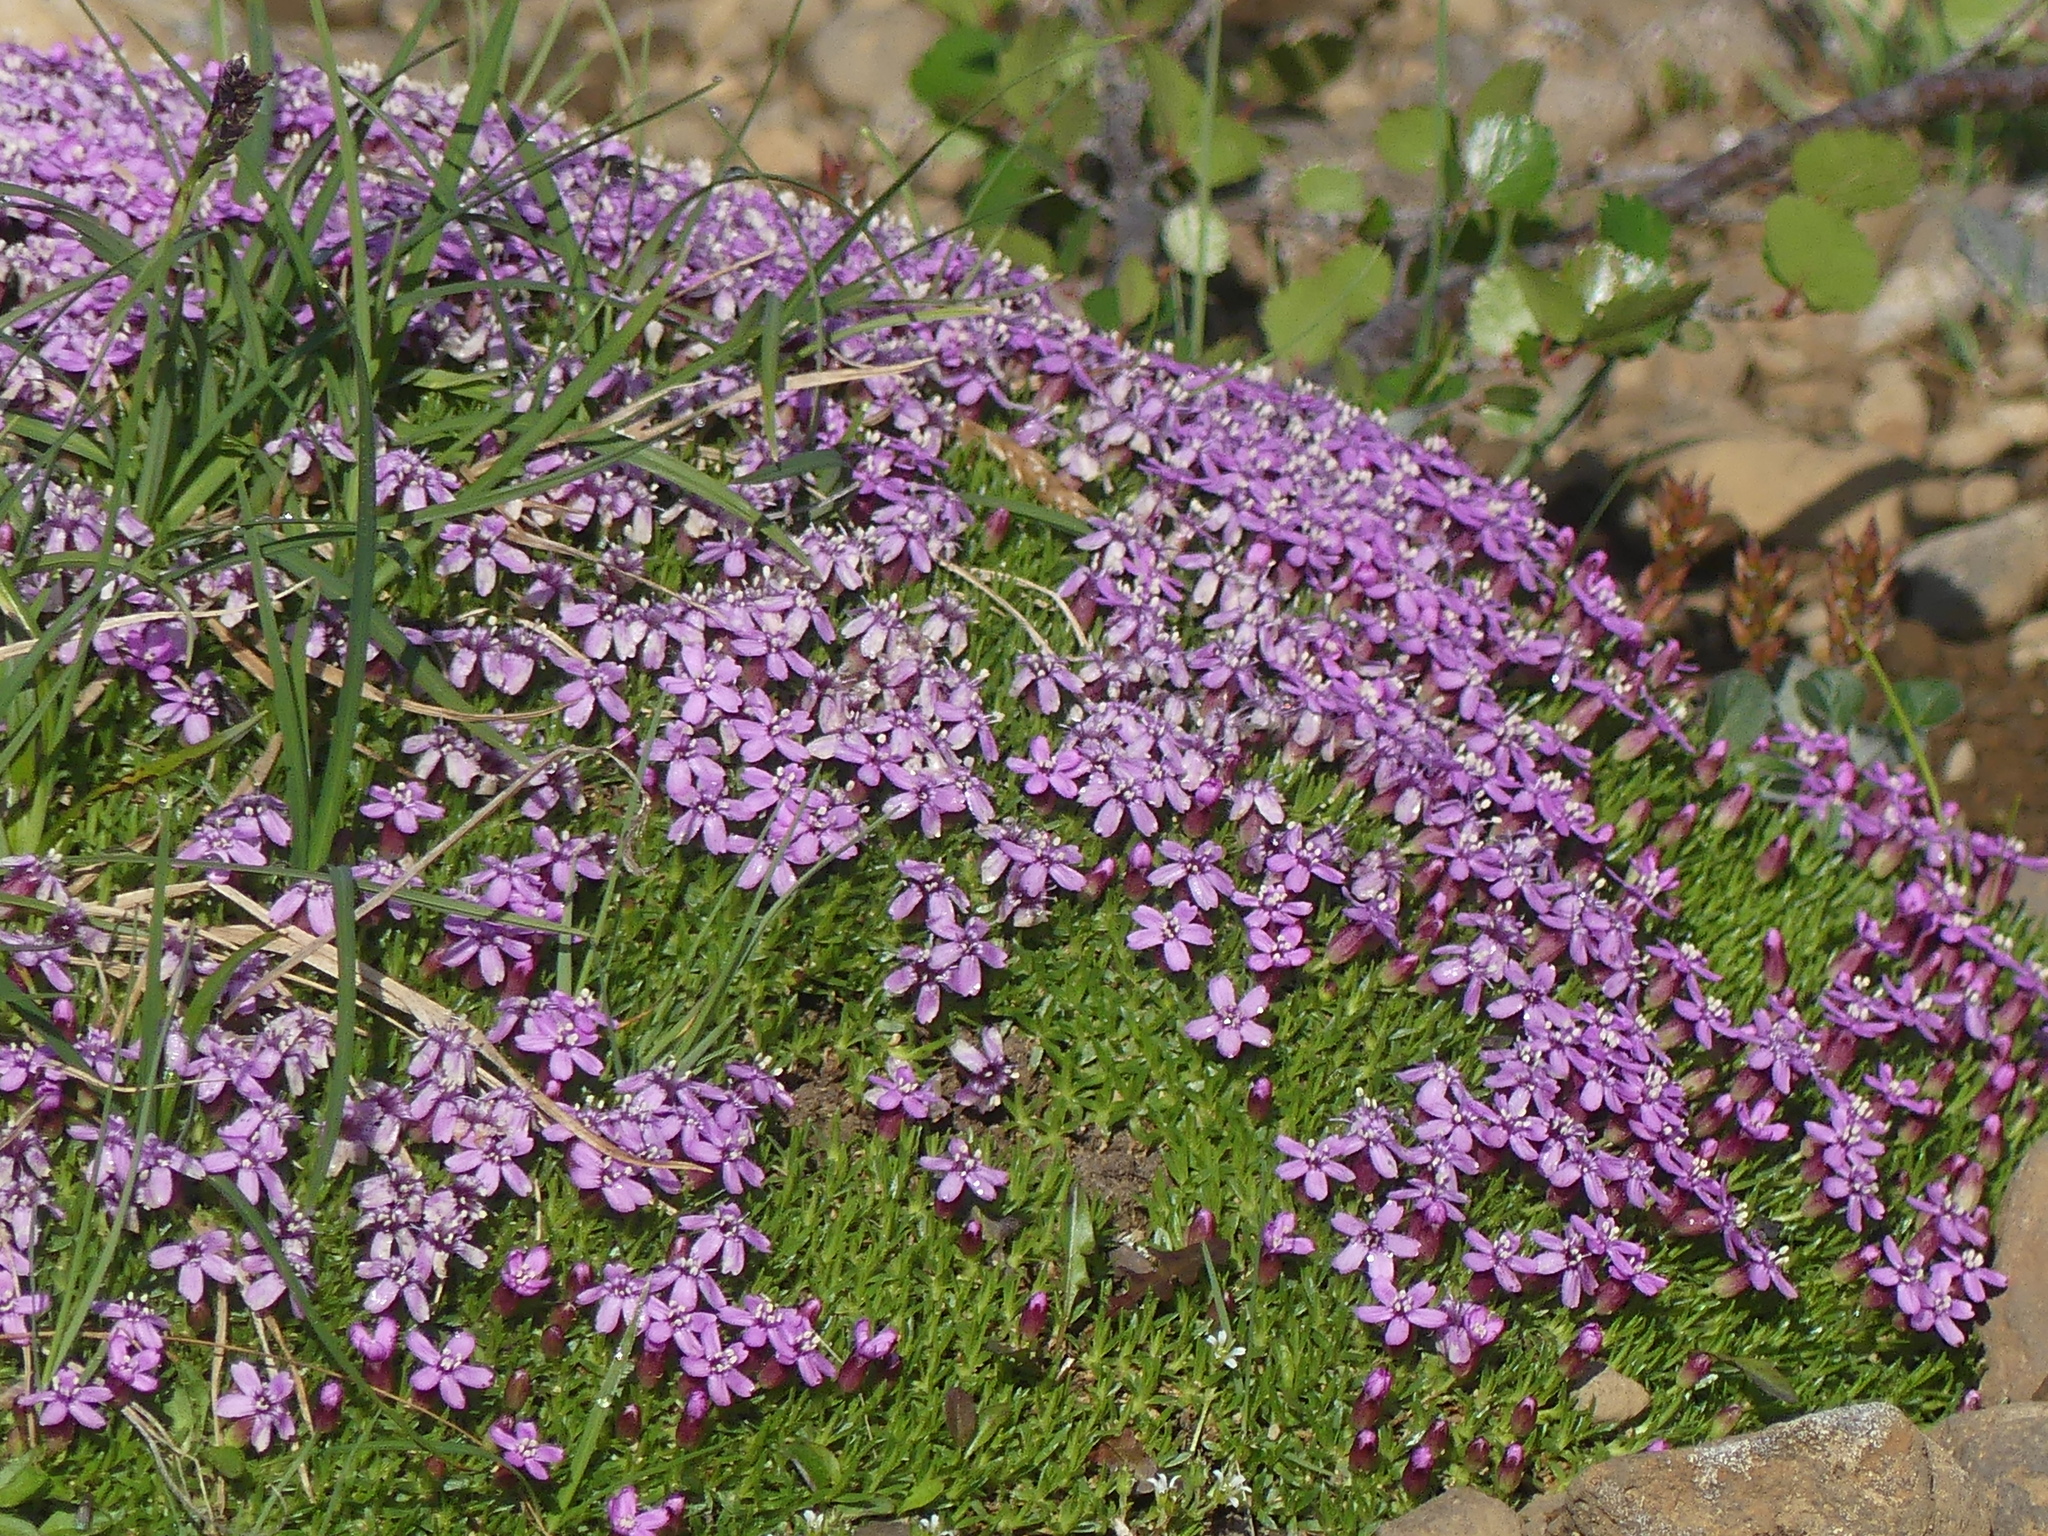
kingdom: Plantae
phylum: Tracheophyta
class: Magnoliopsida
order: Caryophyllales
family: Caryophyllaceae
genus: Silene
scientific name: Silene acaulis
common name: Moss campion
